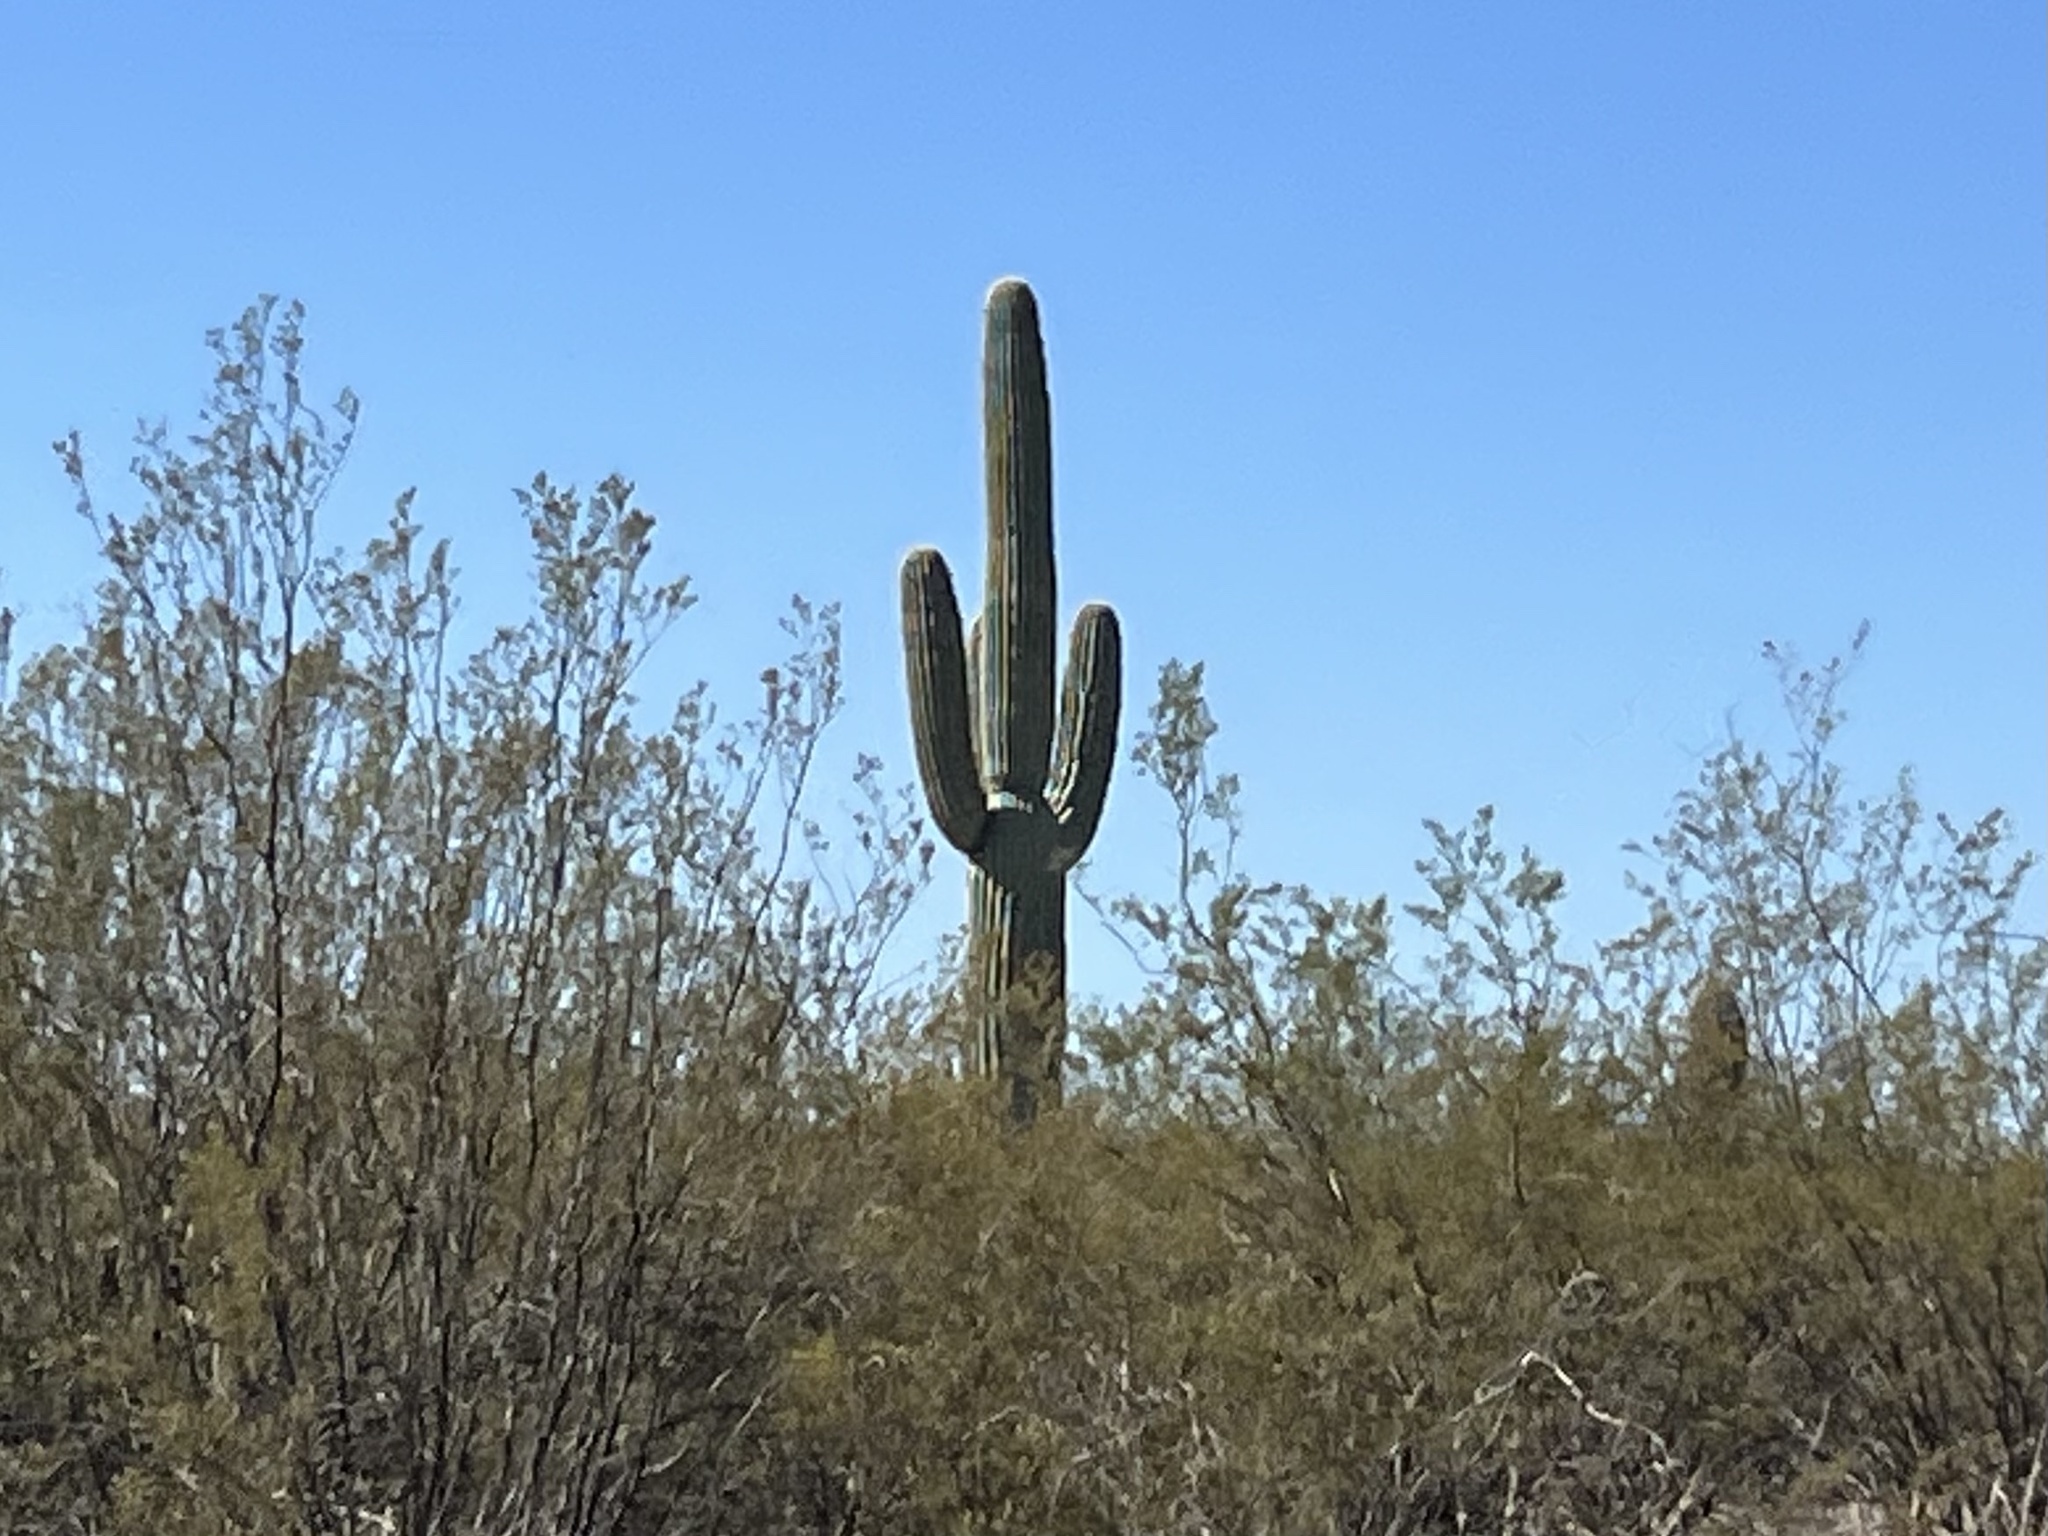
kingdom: Plantae
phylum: Tracheophyta
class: Magnoliopsida
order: Caryophyllales
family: Cactaceae
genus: Carnegiea
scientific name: Carnegiea gigantea
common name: Saguaro
